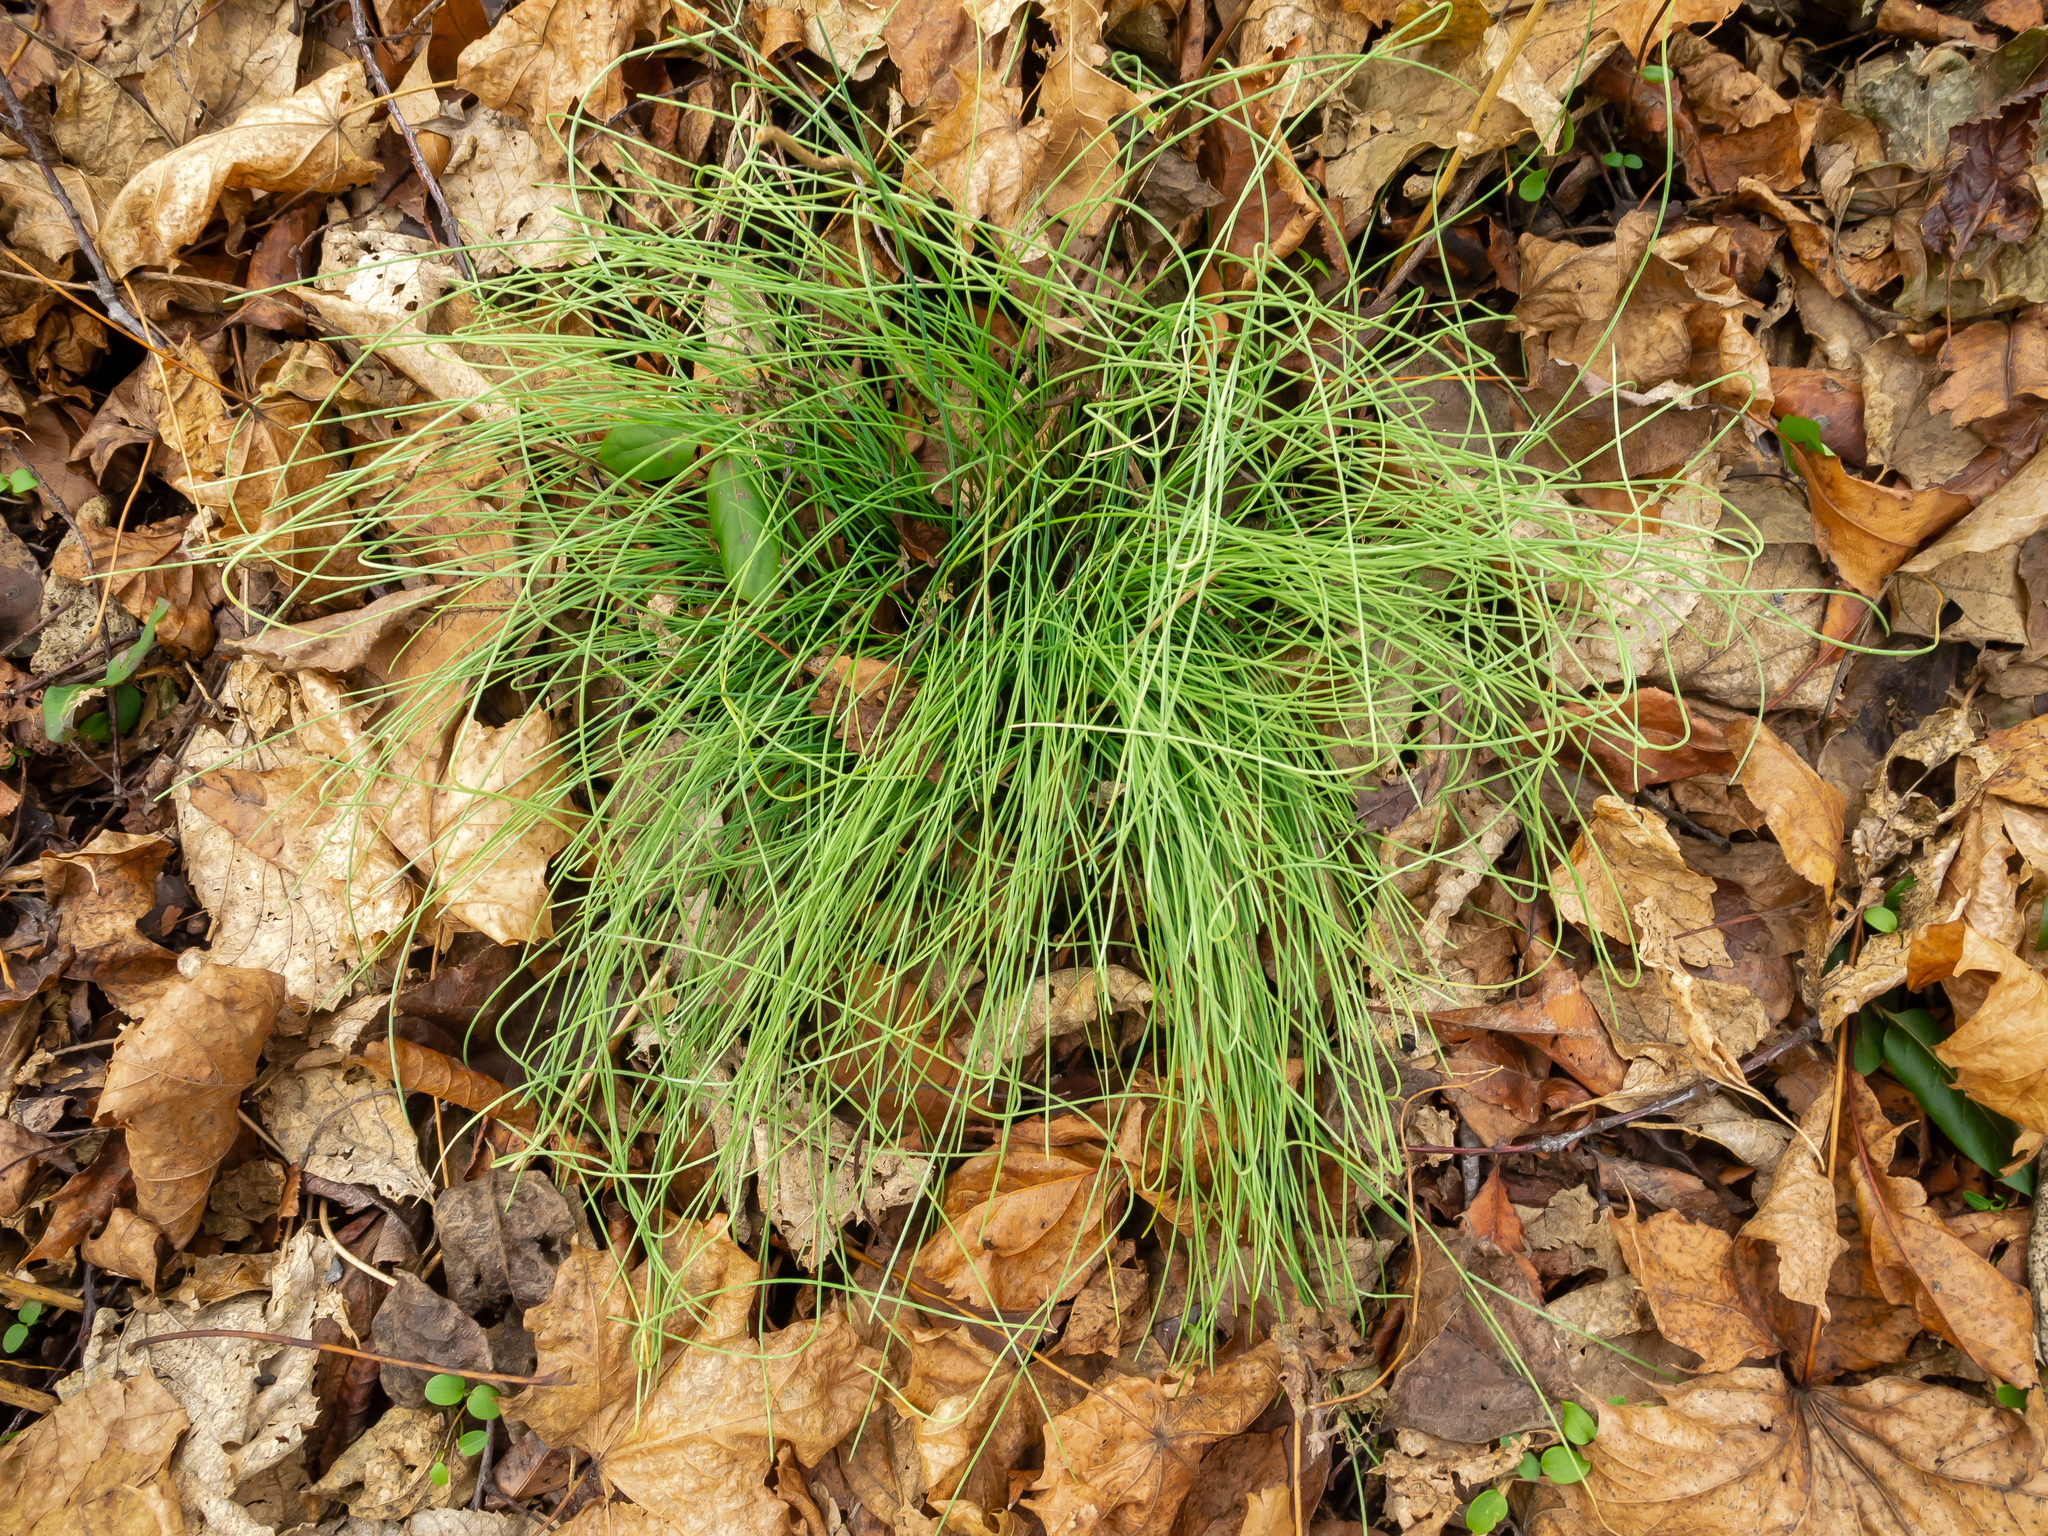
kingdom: Plantae
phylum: Tracheophyta
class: Liliopsida
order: Asparagales
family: Amaryllidaceae
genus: Allium
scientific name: Allium vineale
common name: Crow garlic
